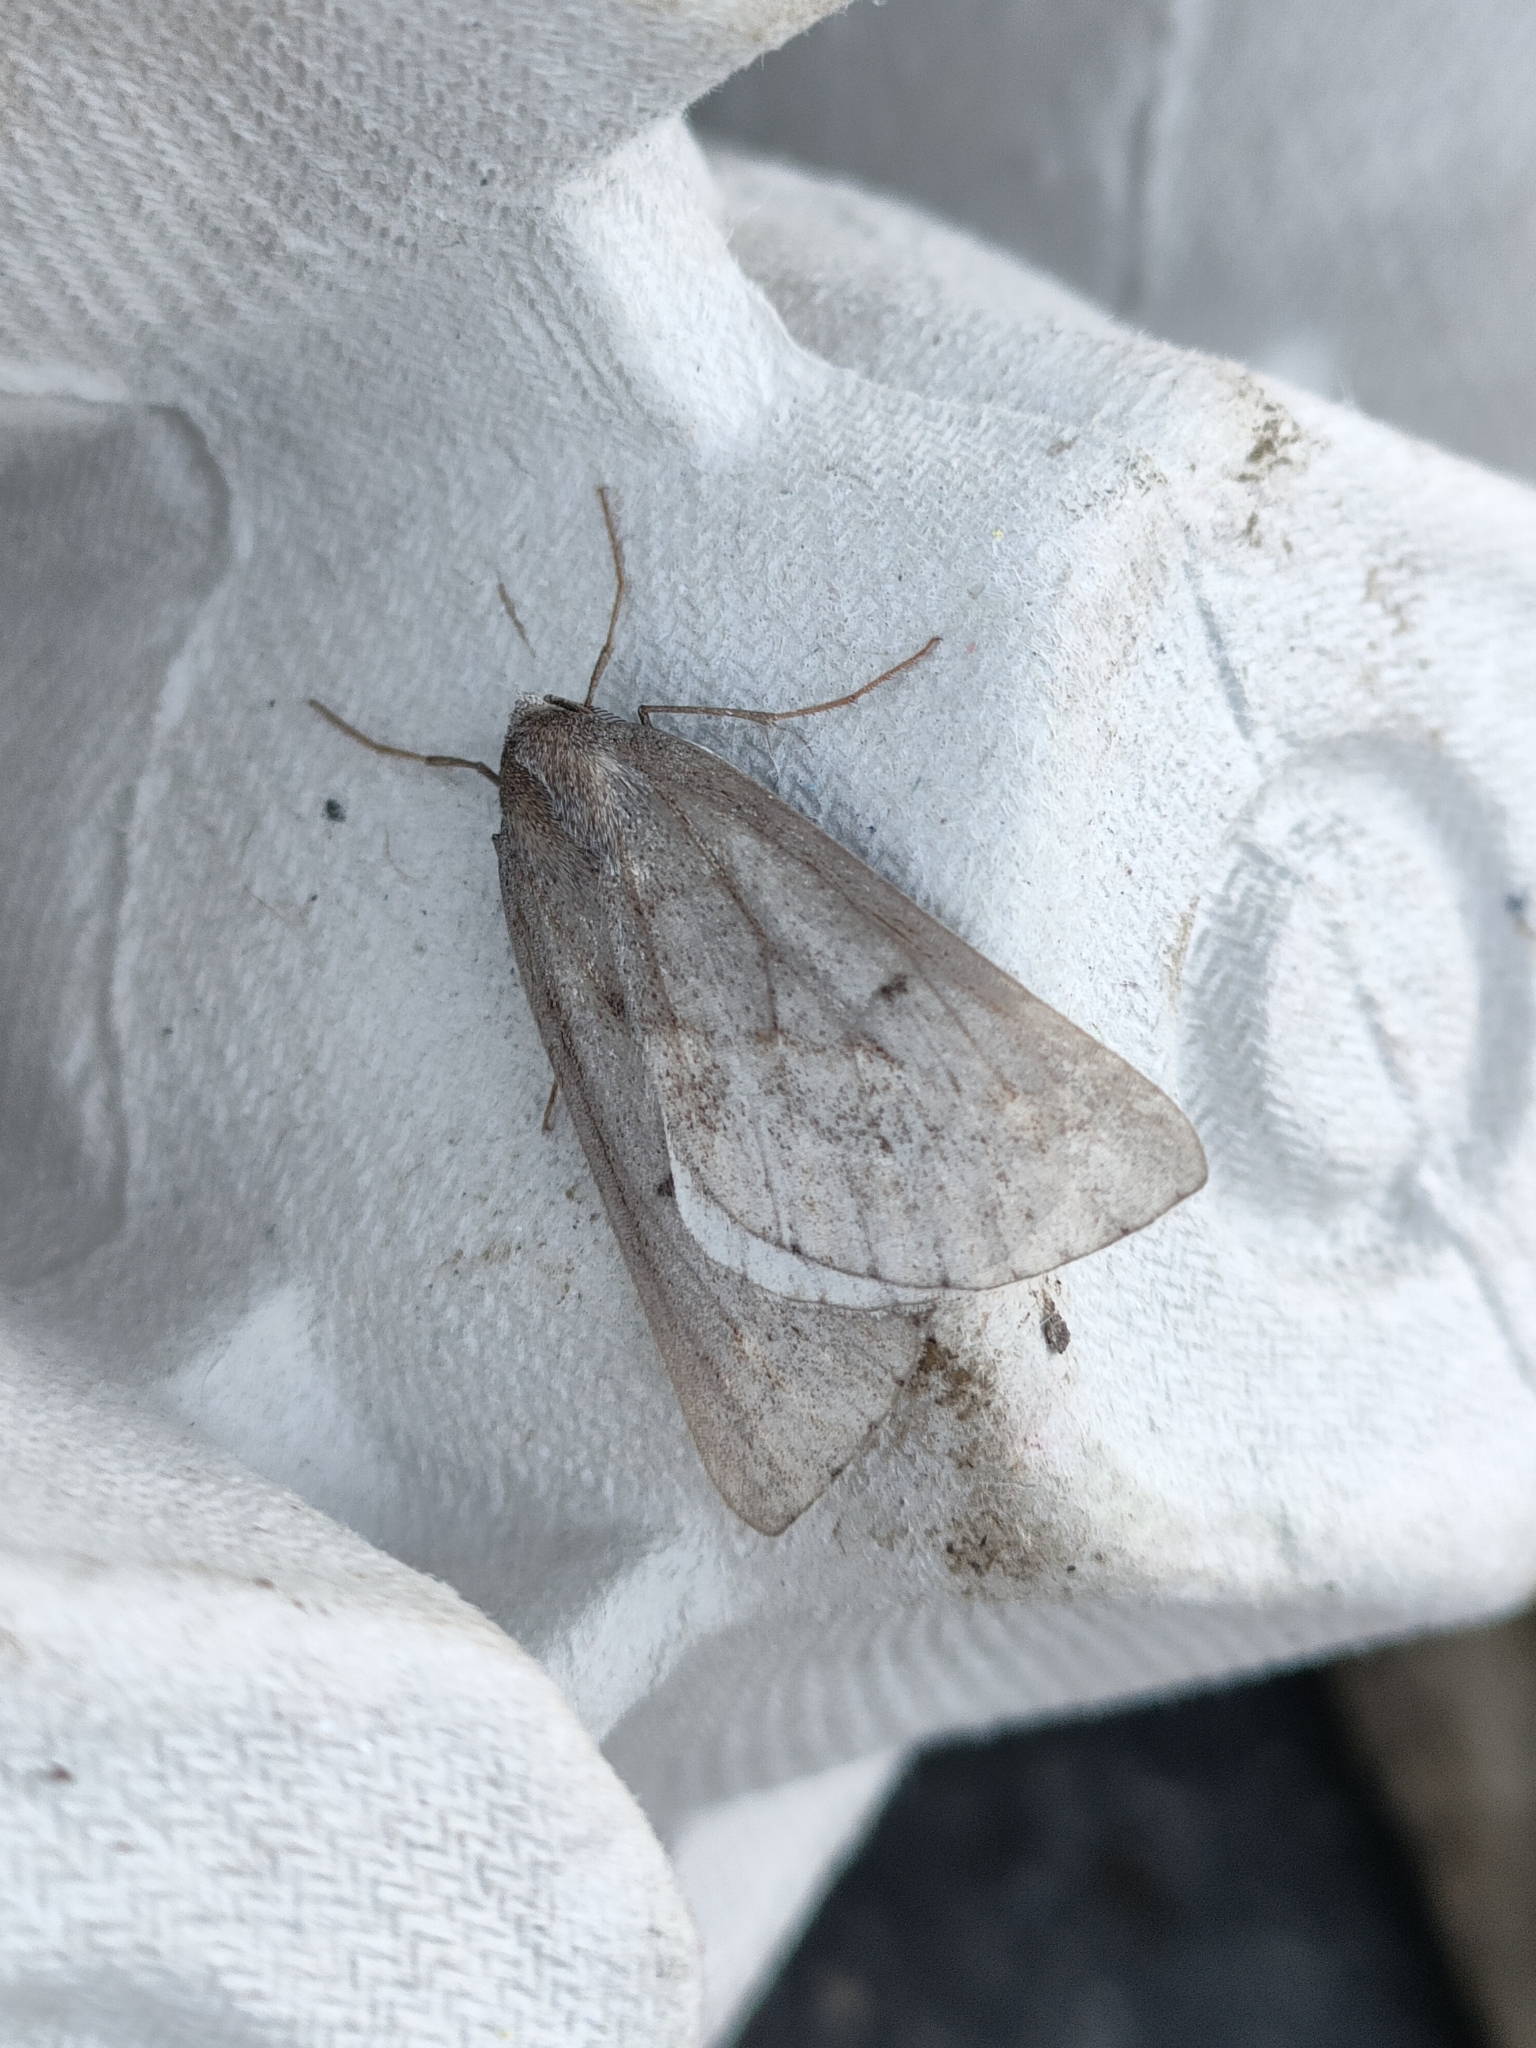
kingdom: Animalia
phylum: Arthropoda
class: Insecta
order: Lepidoptera
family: Geometridae
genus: Chemerina
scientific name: Chemerina caliginearia
